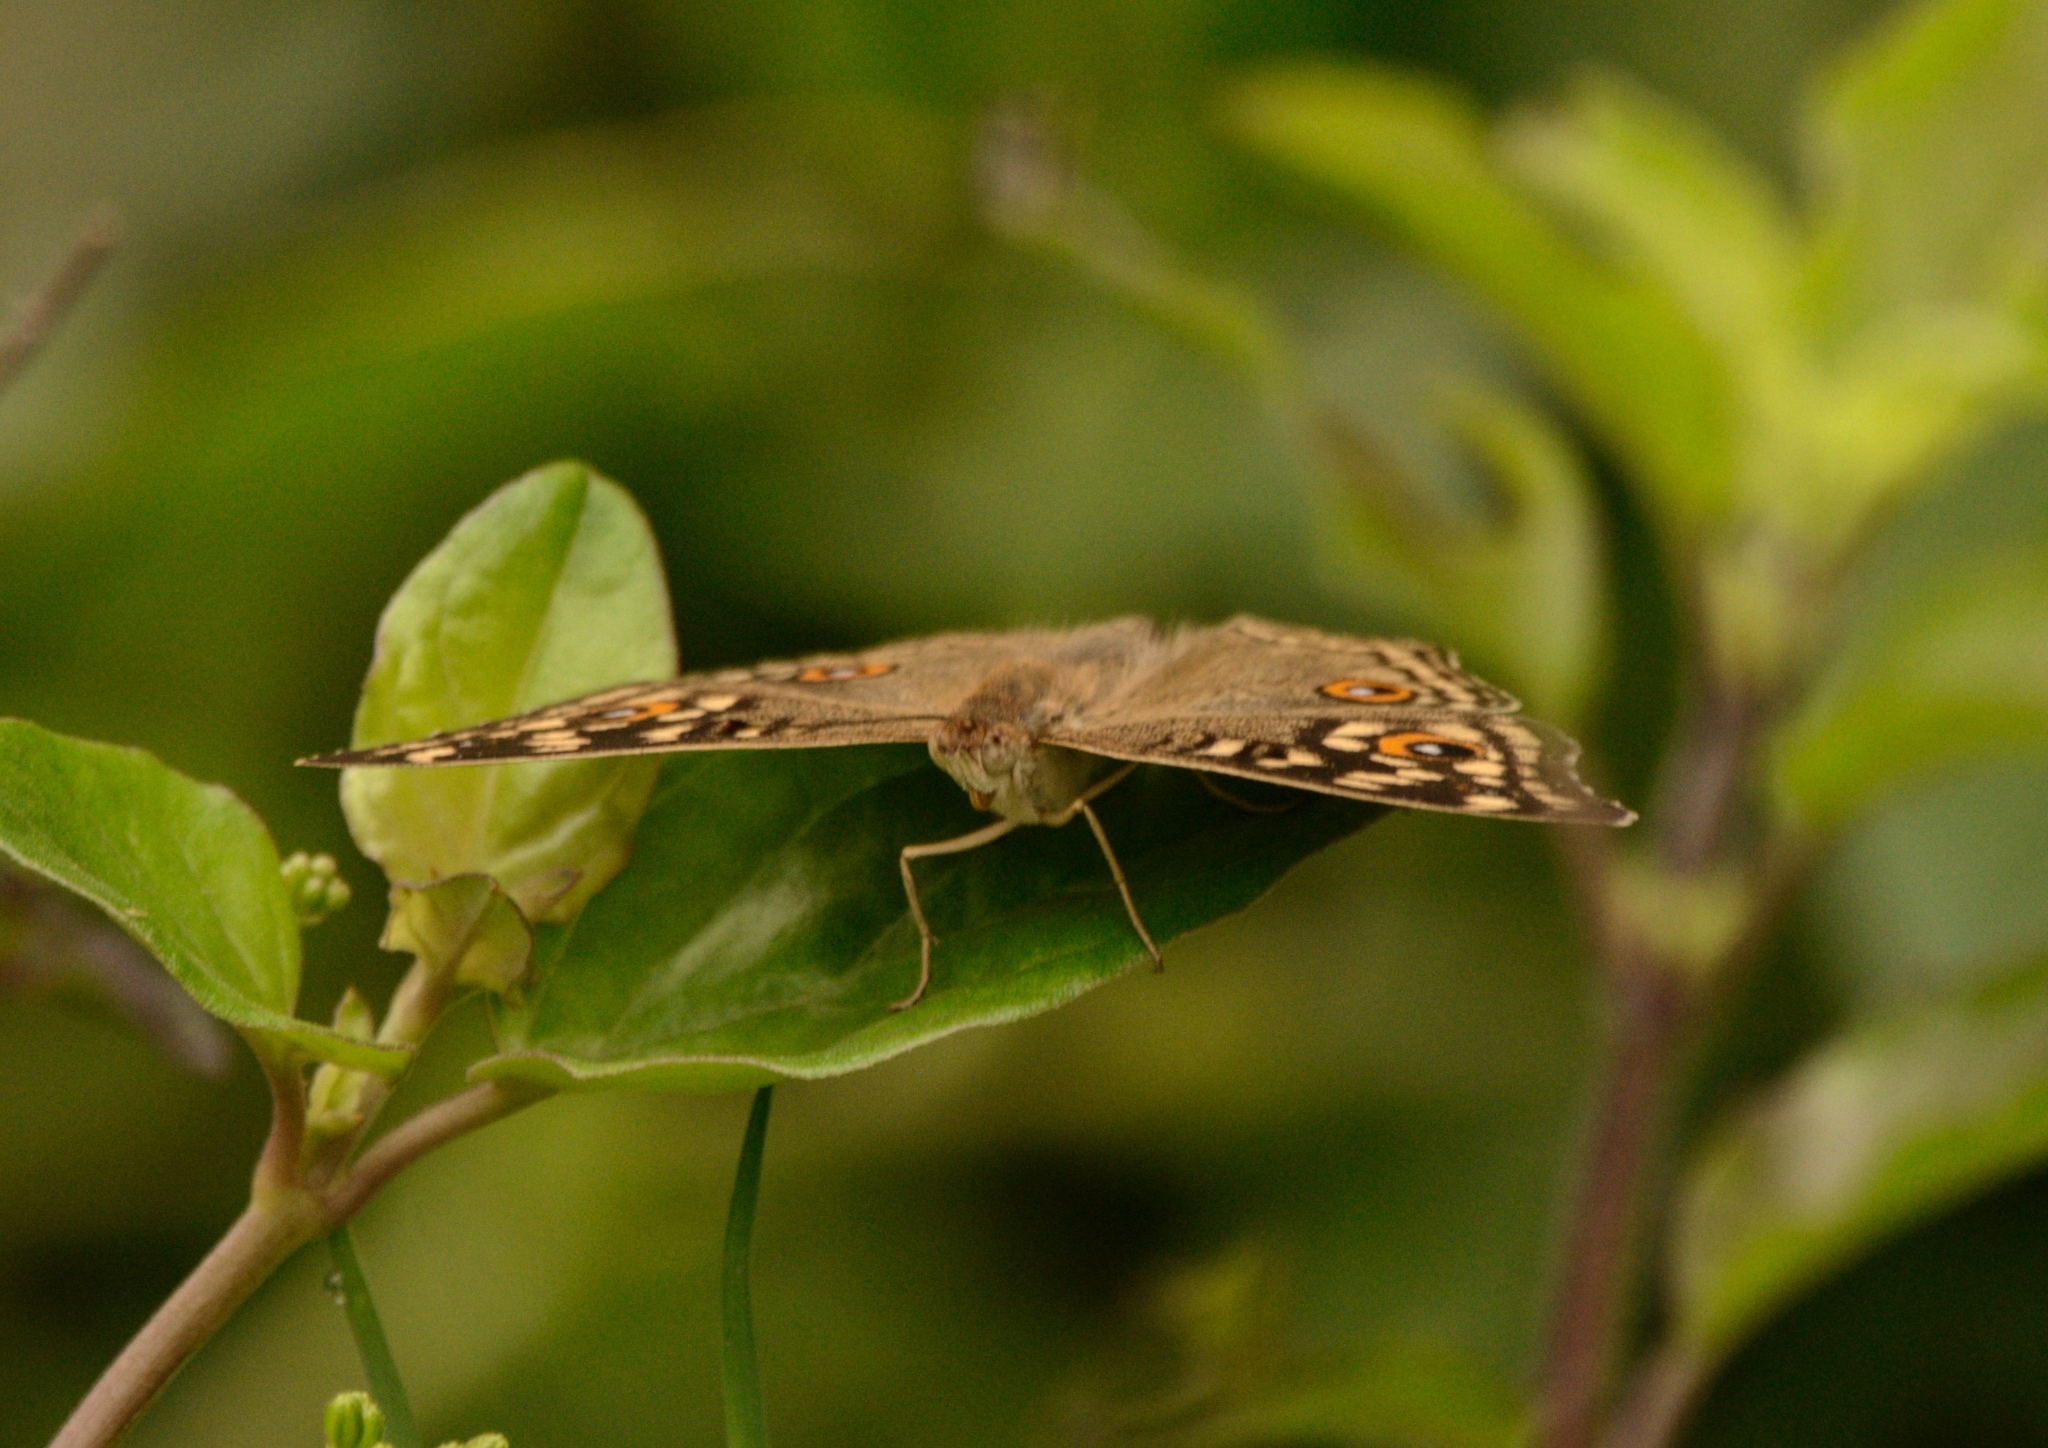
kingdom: Animalia
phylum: Arthropoda
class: Insecta
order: Lepidoptera
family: Nymphalidae
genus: Junonia
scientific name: Junonia lemonias
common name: Lemon pansy
